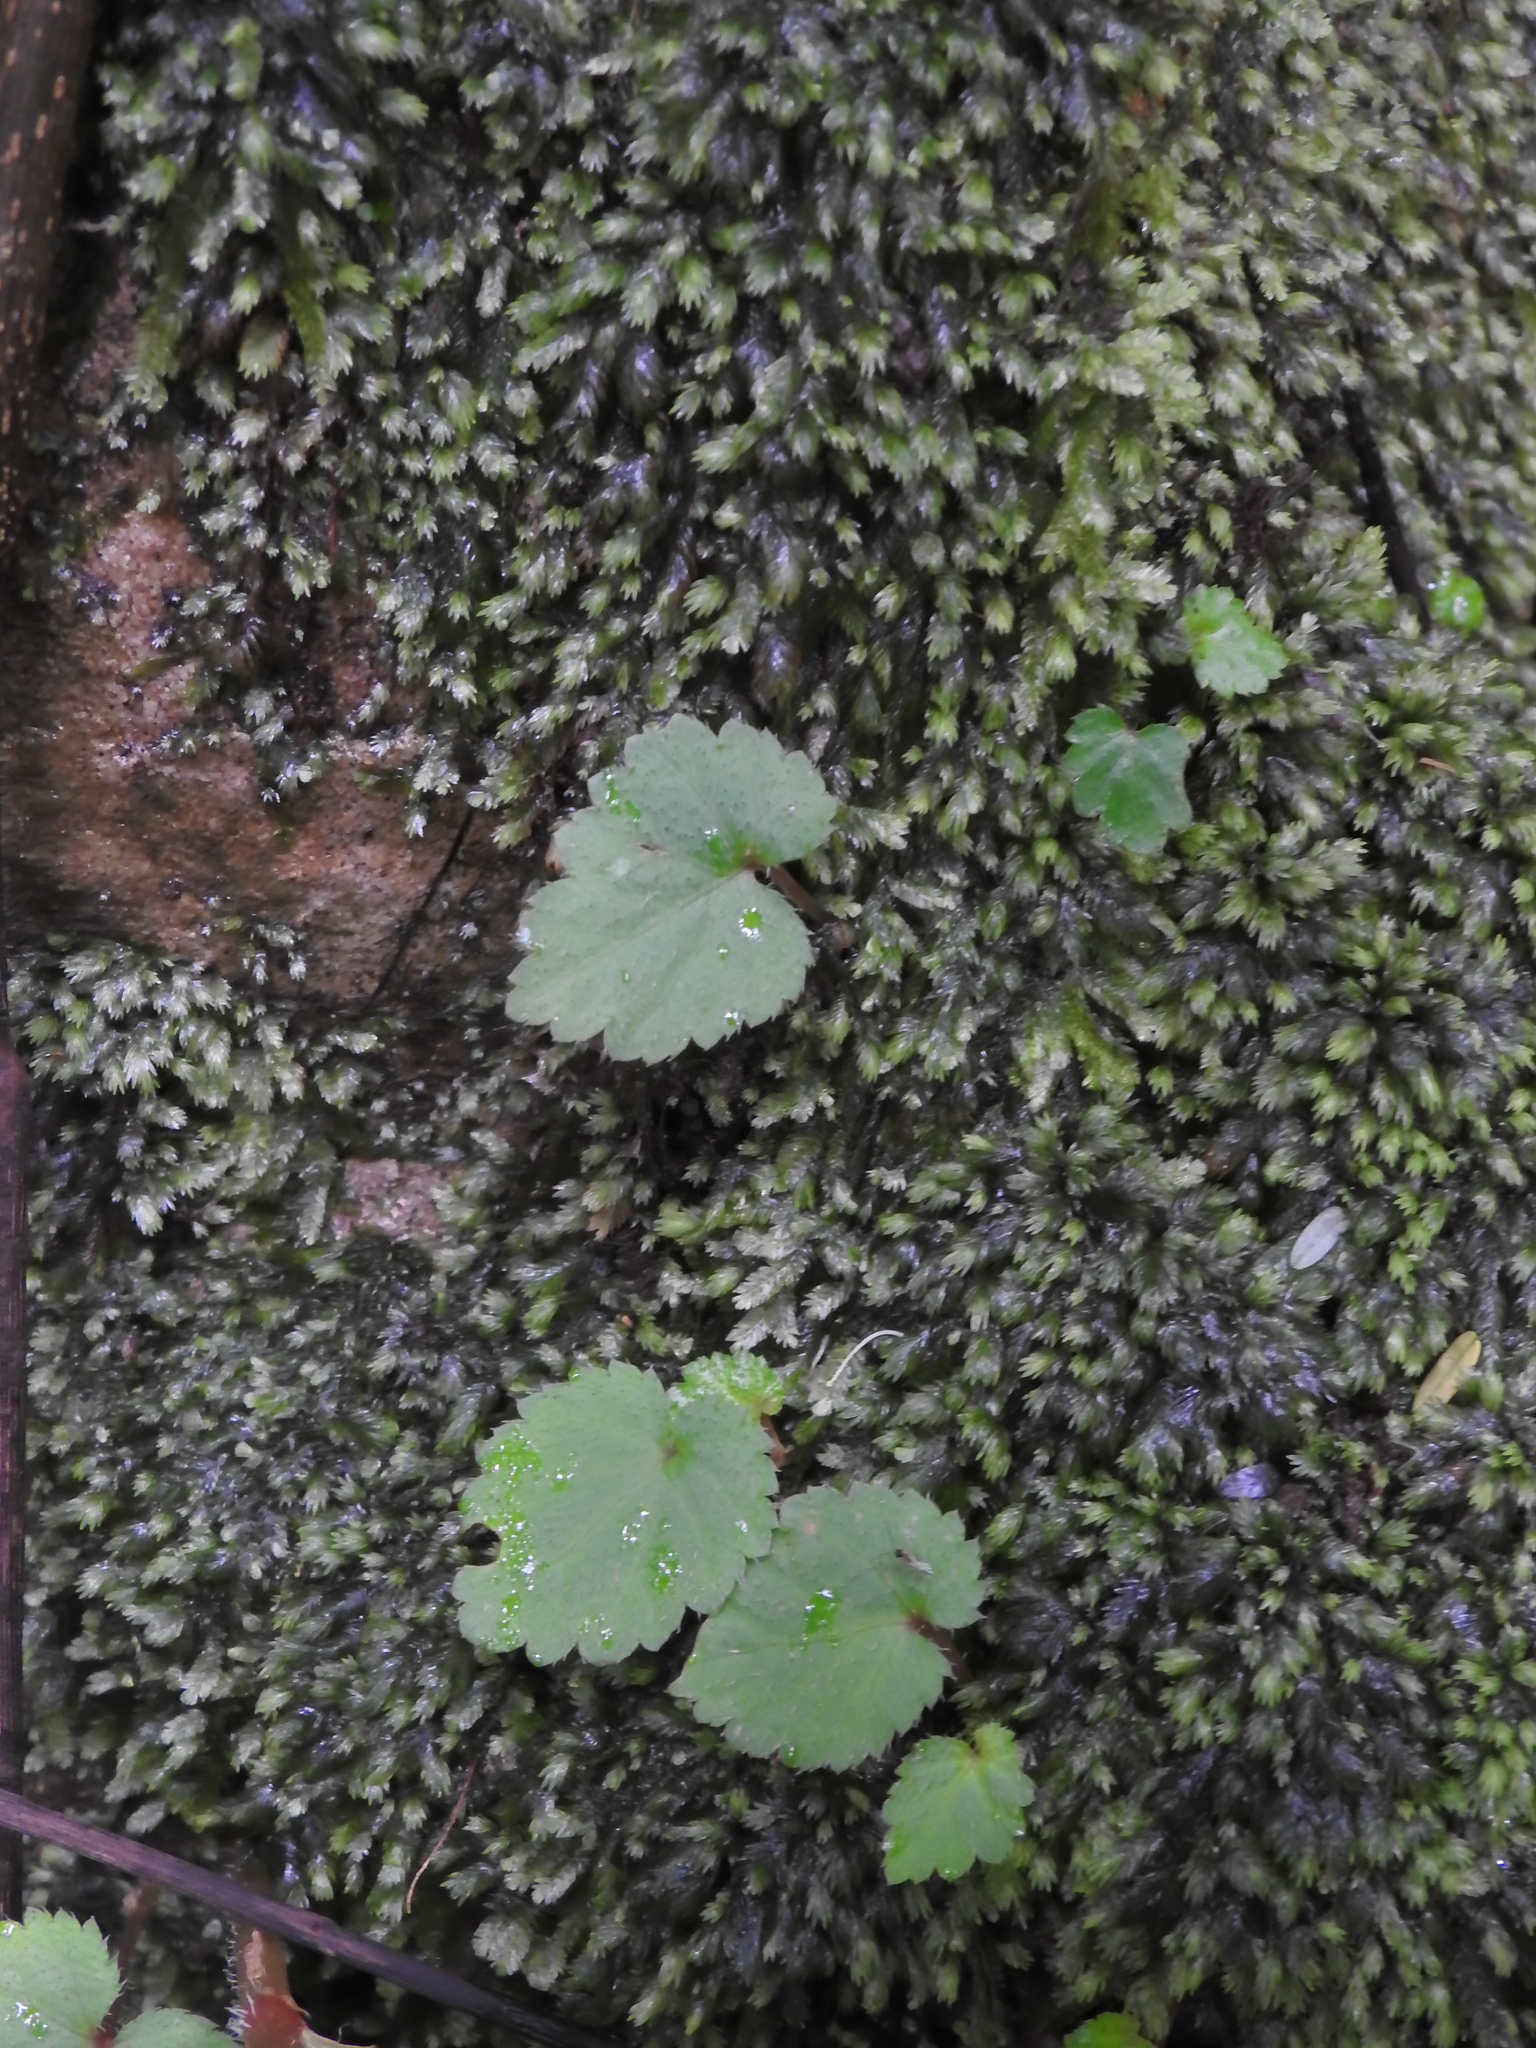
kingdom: Plantae
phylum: Tracheophyta
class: Magnoliopsida
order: Cucurbitales
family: Begoniaceae
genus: Begonia
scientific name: Begonia sutherlandii
